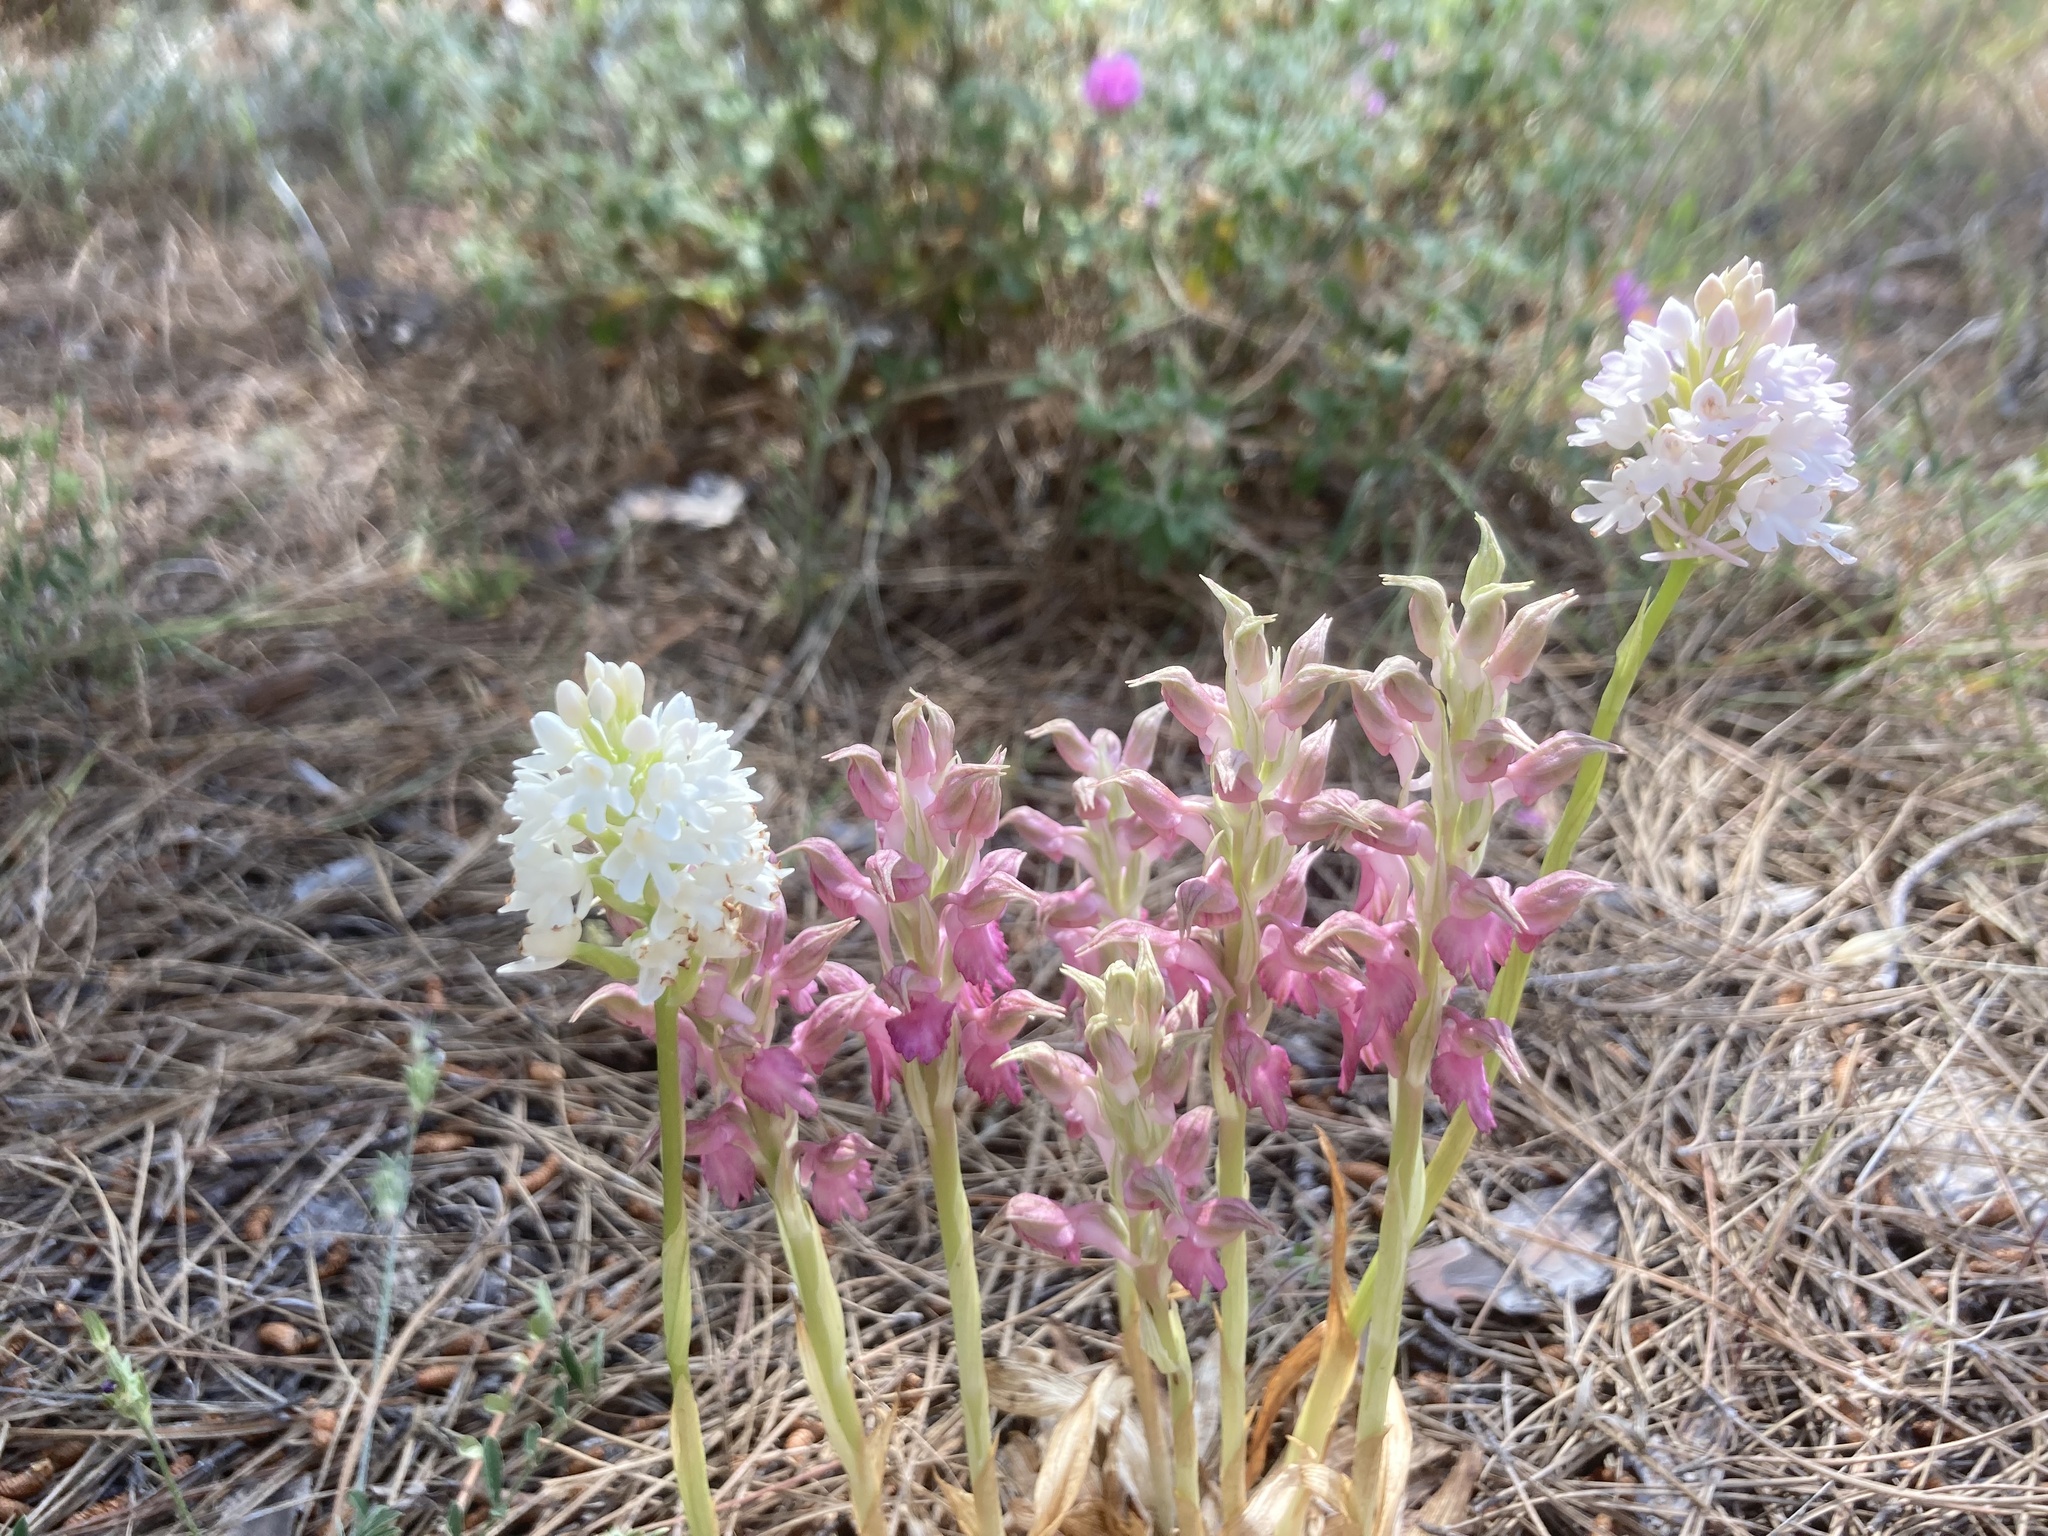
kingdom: Plantae
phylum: Tracheophyta
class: Liliopsida
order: Asparagales
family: Orchidaceae
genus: Anacamptis
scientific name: Anacamptis sancta
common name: Holy orchid
